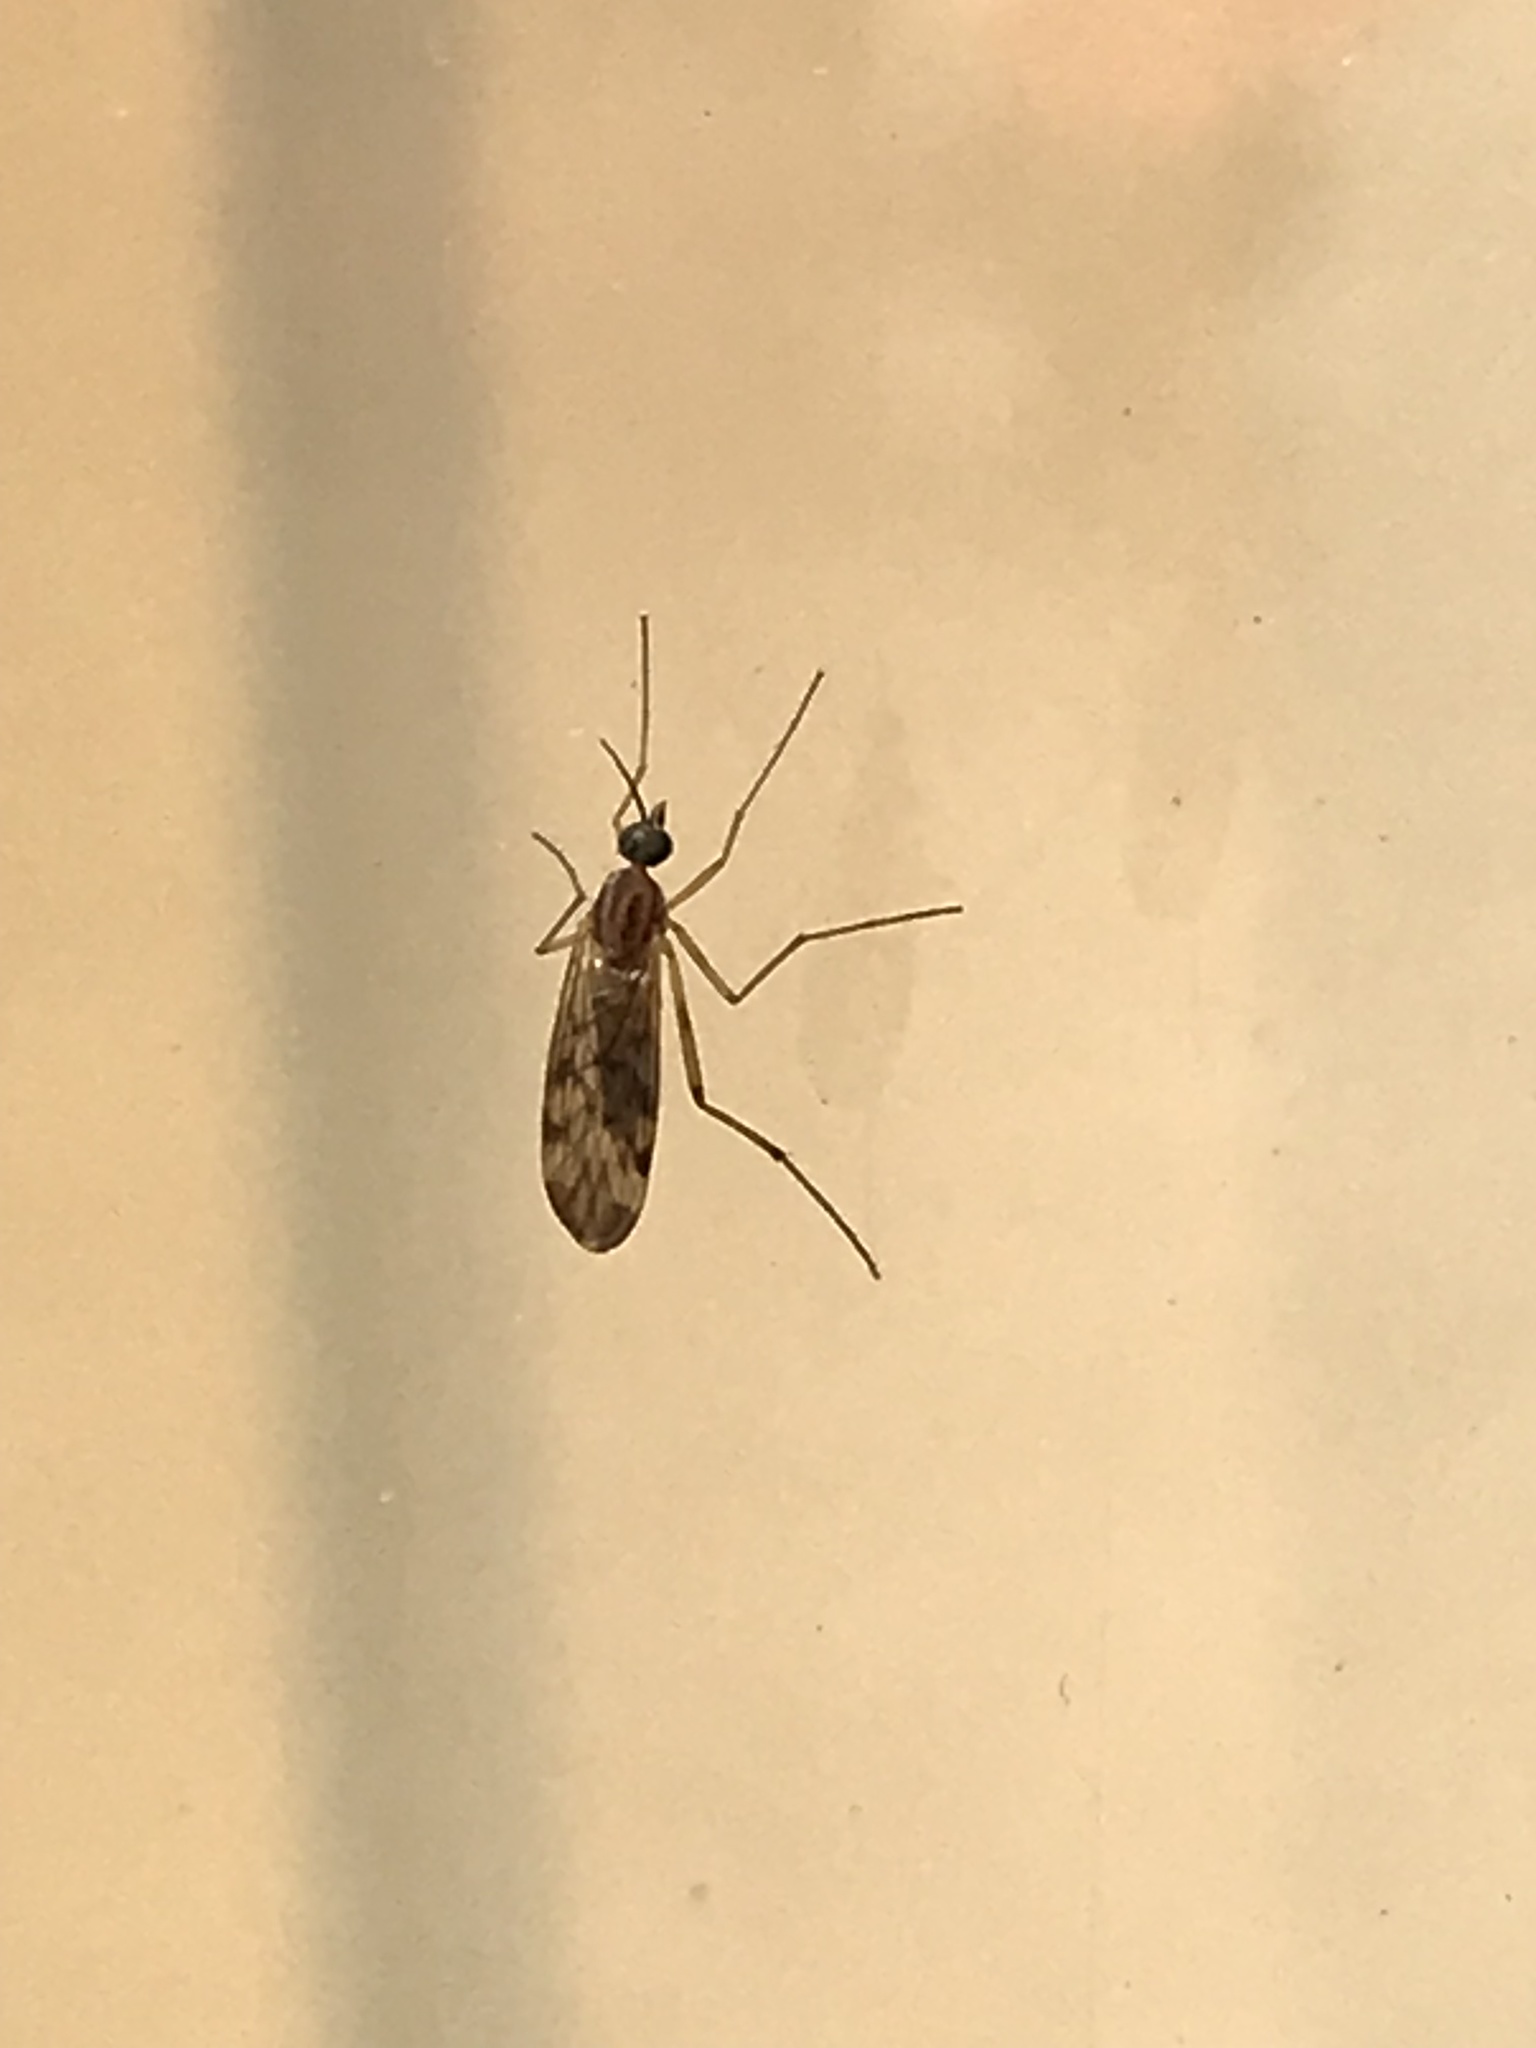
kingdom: Animalia
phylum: Arthropoda
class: Insecta
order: Diptera
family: Anisopodidae
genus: Sylvicola
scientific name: Sylvicola
